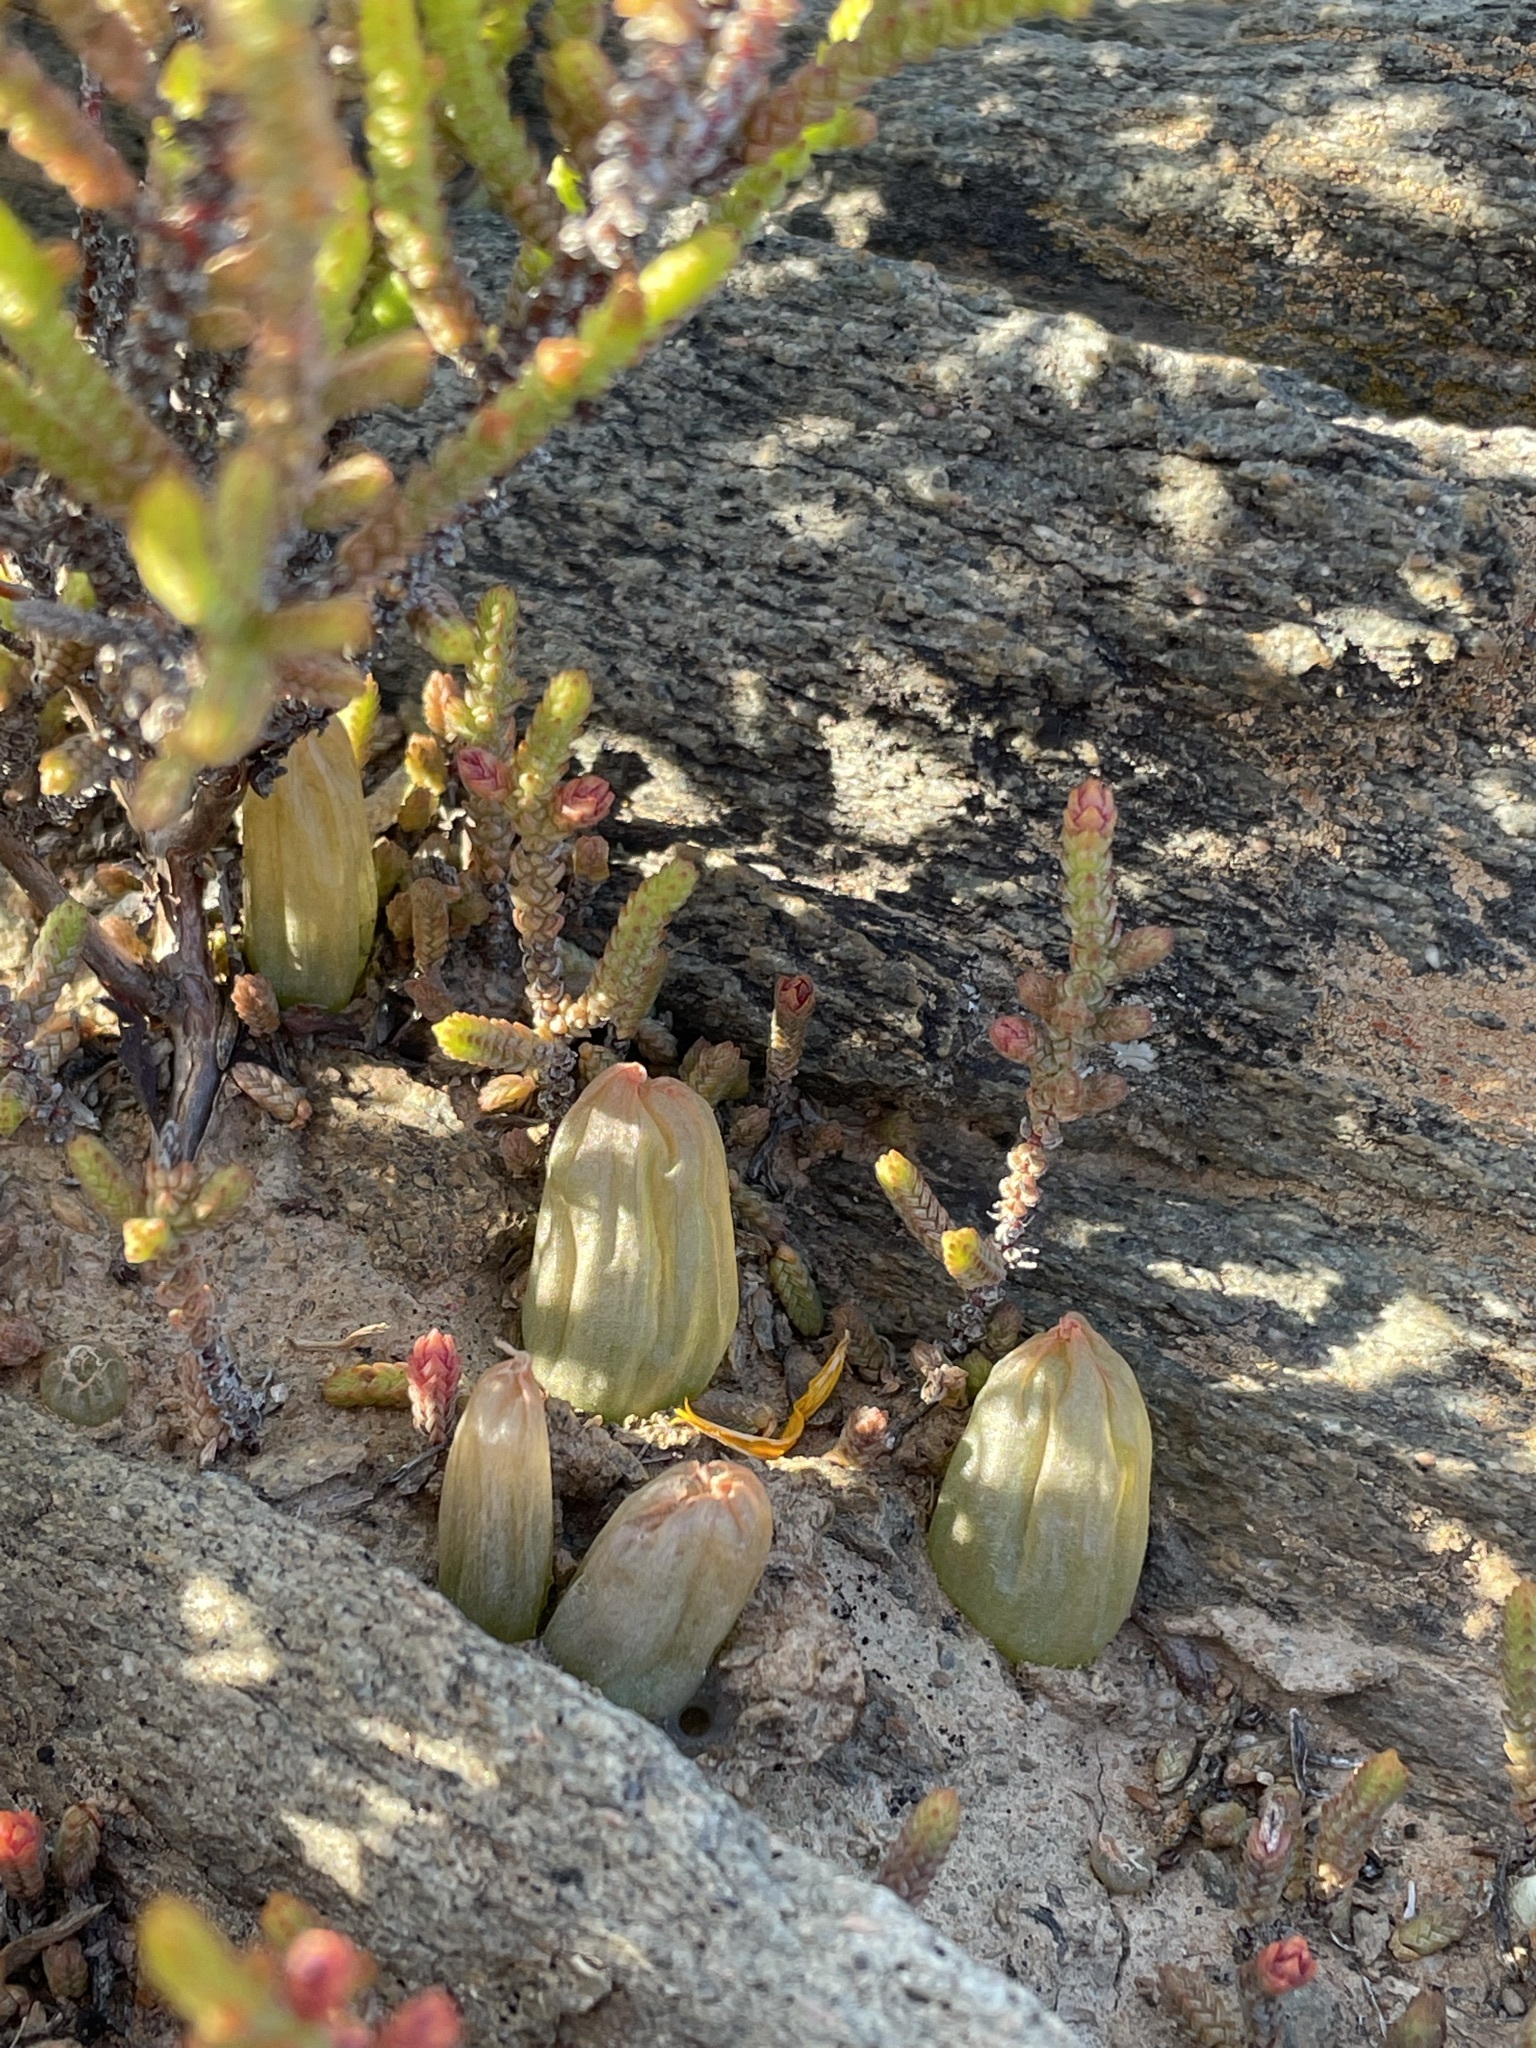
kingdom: Plantae
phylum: Tracheophyta
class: Liliopsida
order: Asparagales
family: Asphodelaceae
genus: Bulbine
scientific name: Bulbine diphylla
